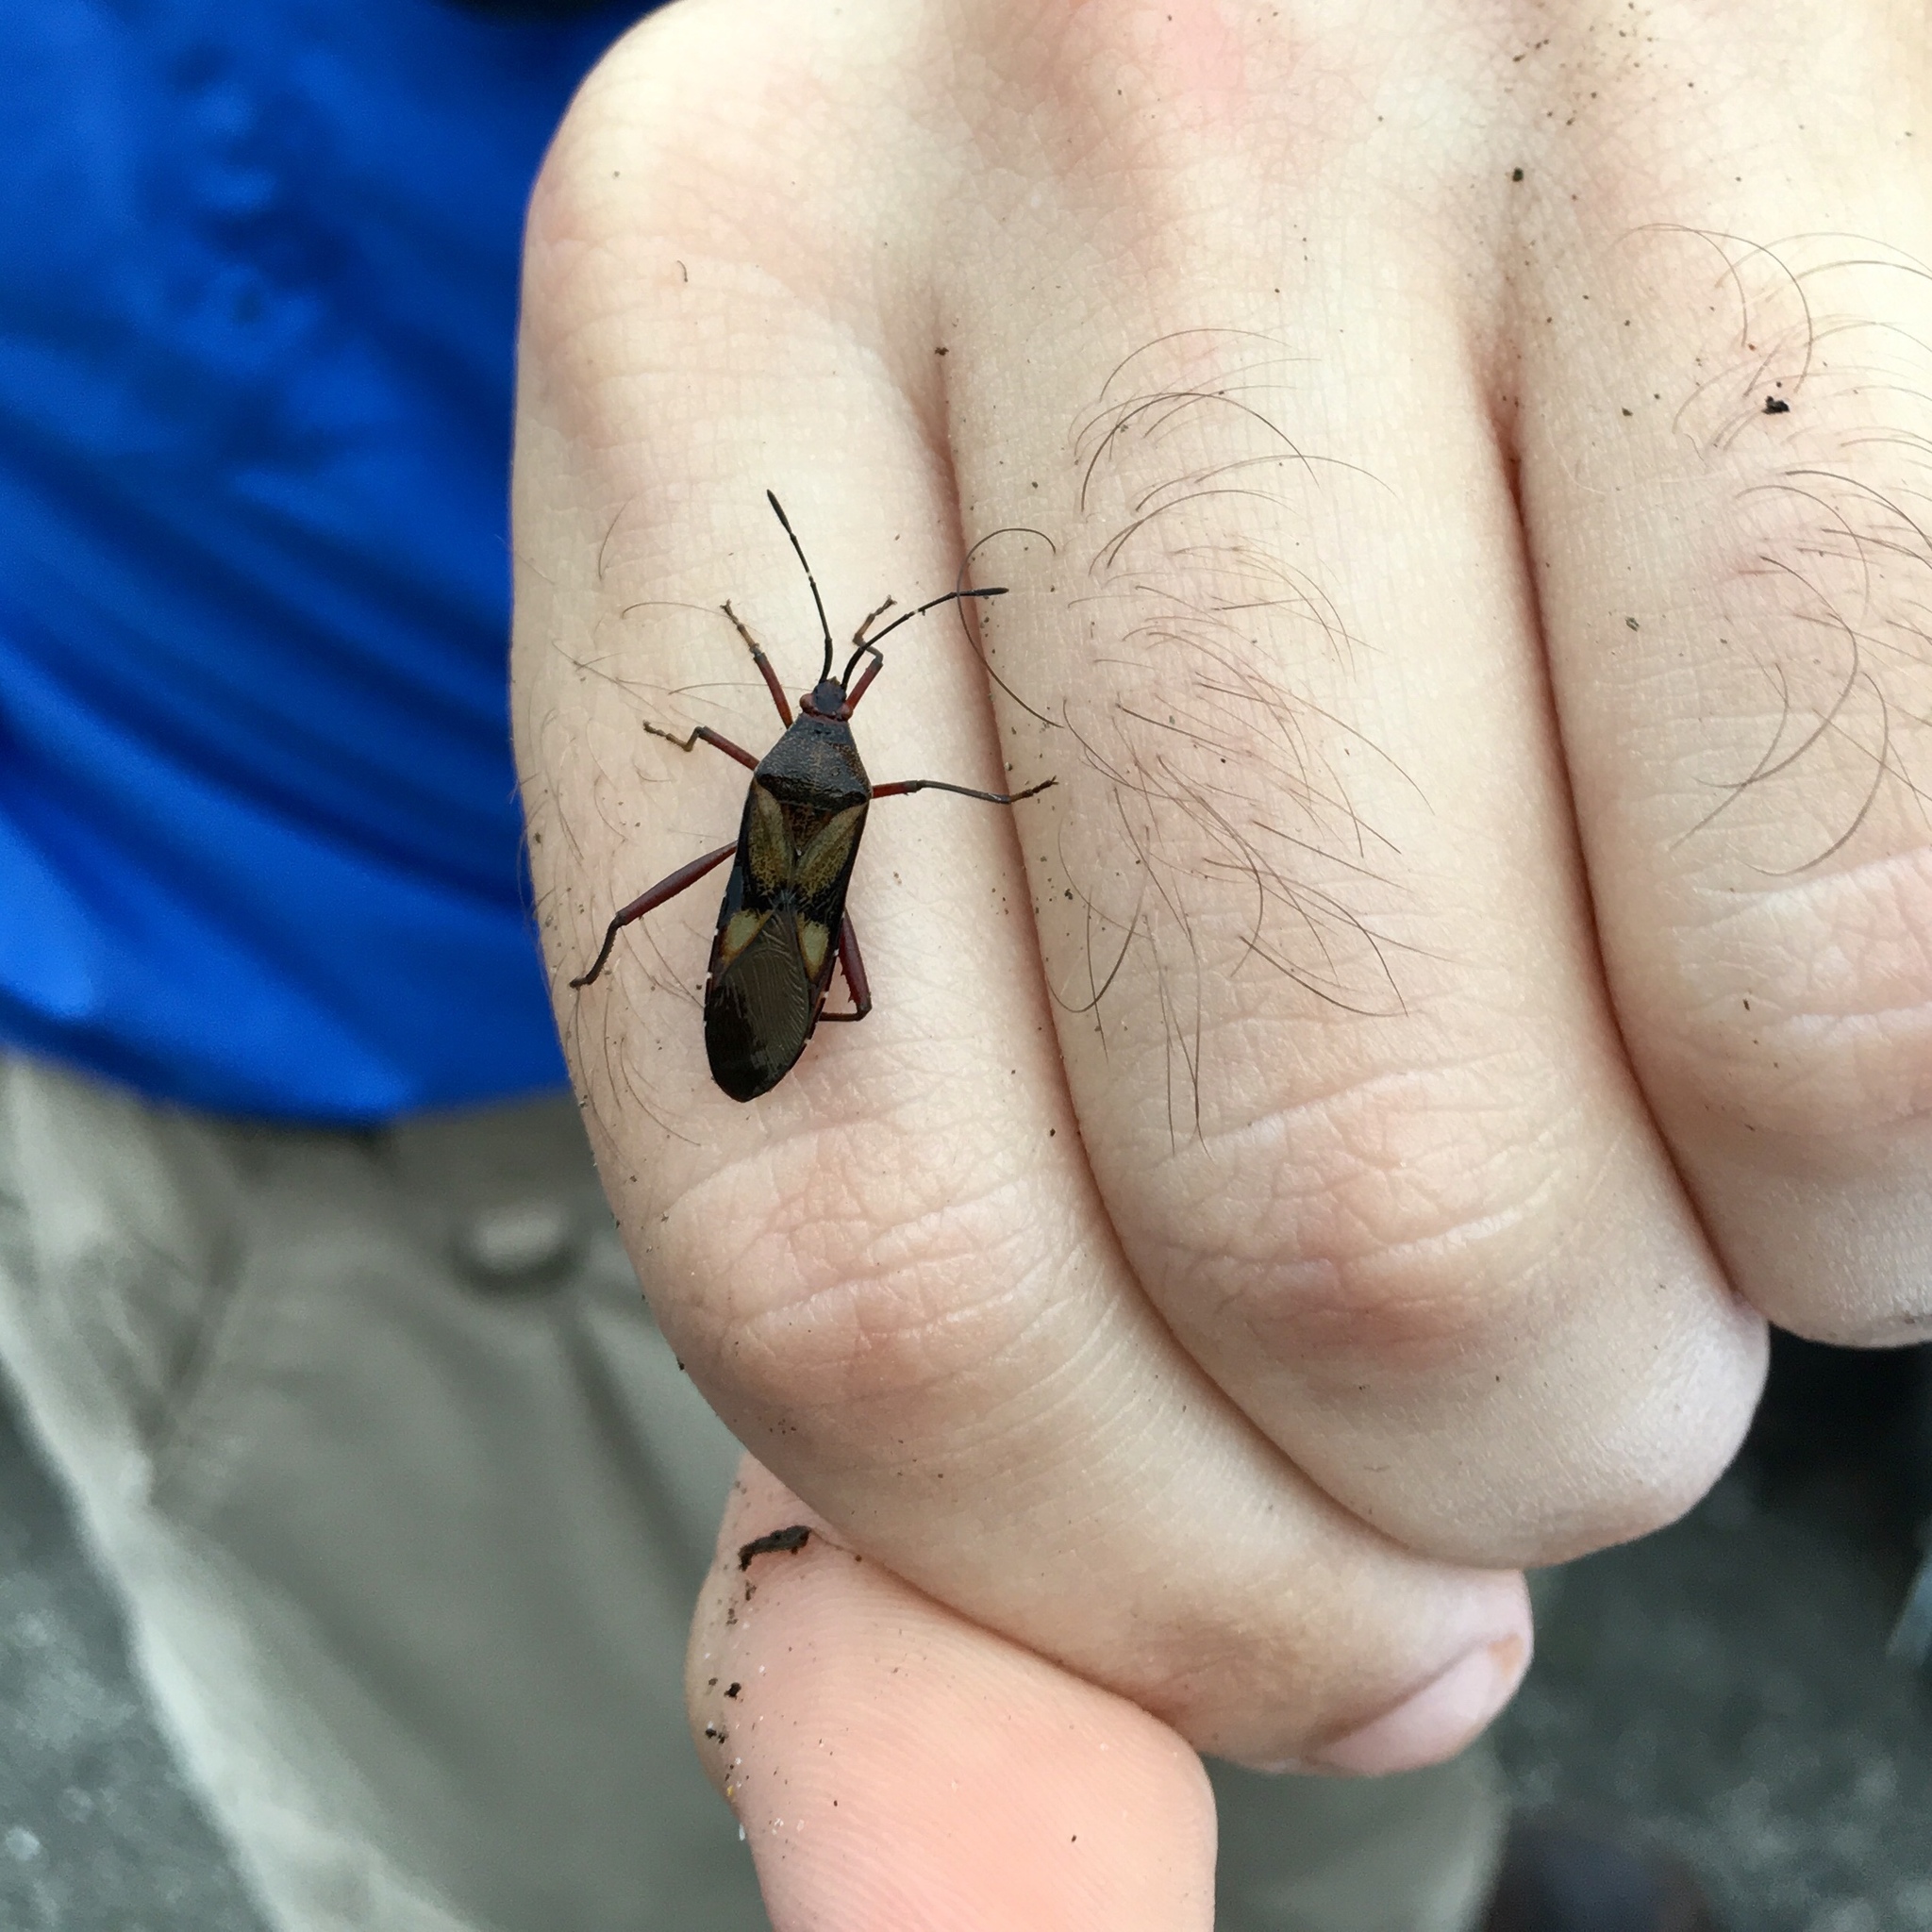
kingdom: Animalia
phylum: Arthropoda
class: Insecta
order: Hemiptera
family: Coreidae
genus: Namacus
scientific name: Namacus annulicornis
